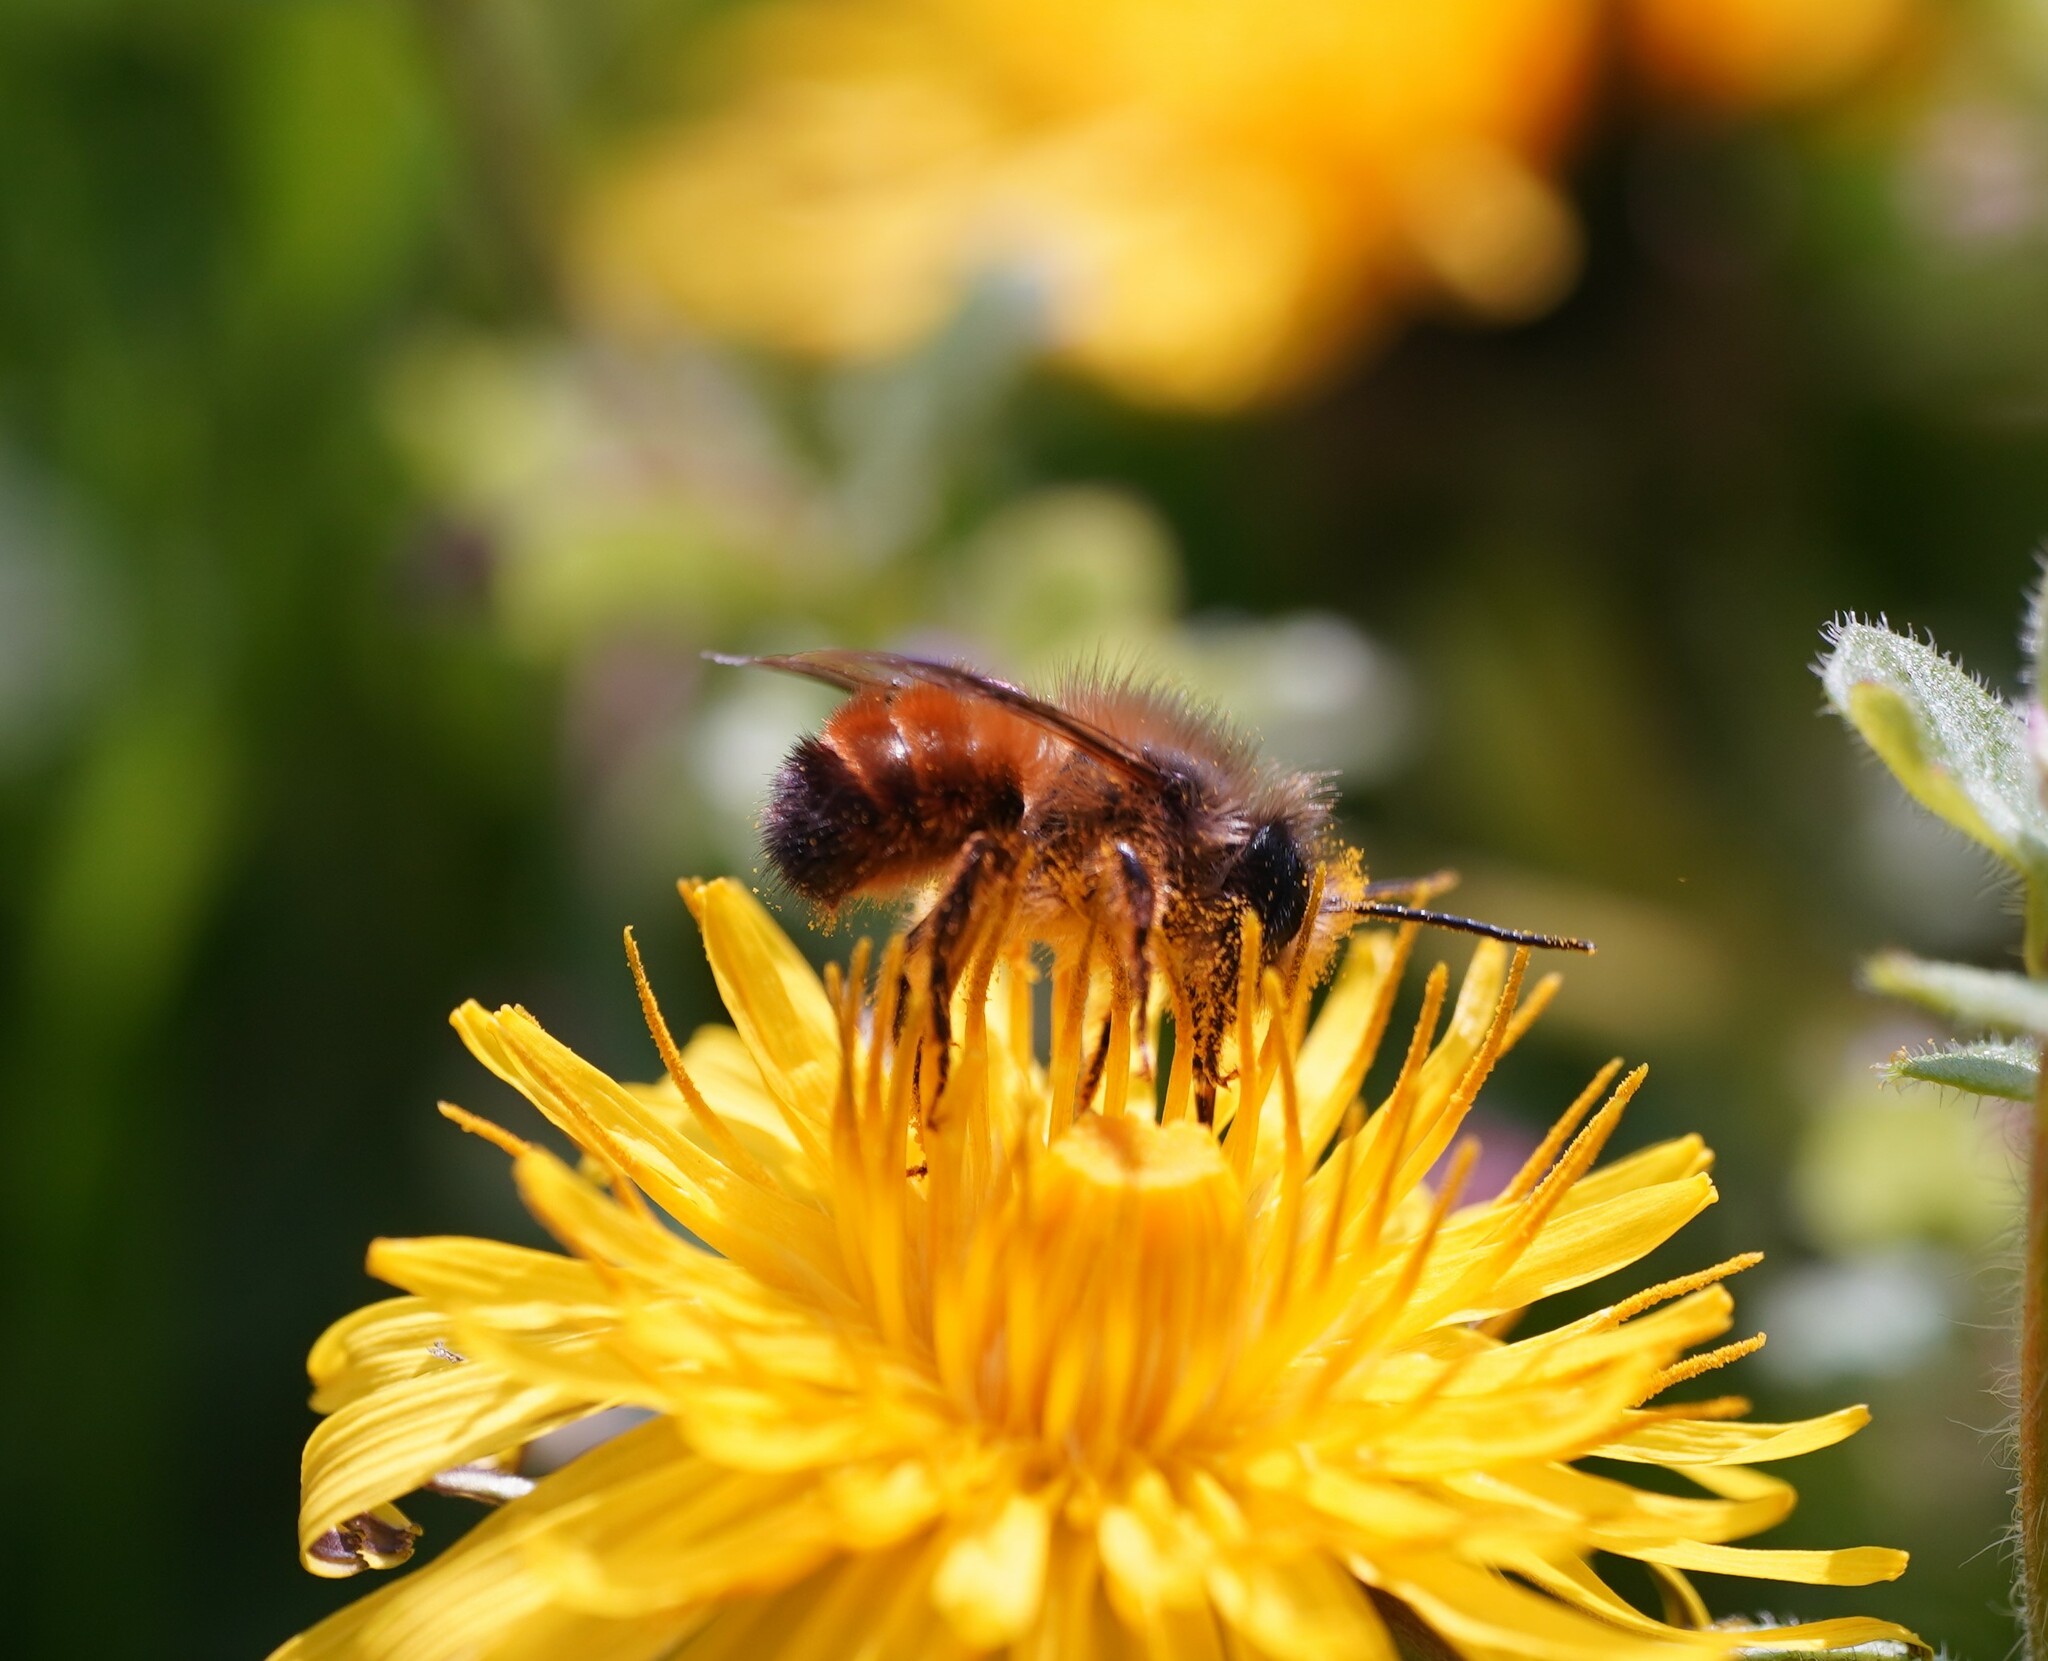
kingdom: Animalia
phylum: Arthropoda
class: Insecta
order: Hymenoptera
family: Megachilidae
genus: Osmia
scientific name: Osmia bicornis
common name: Red mason bee
